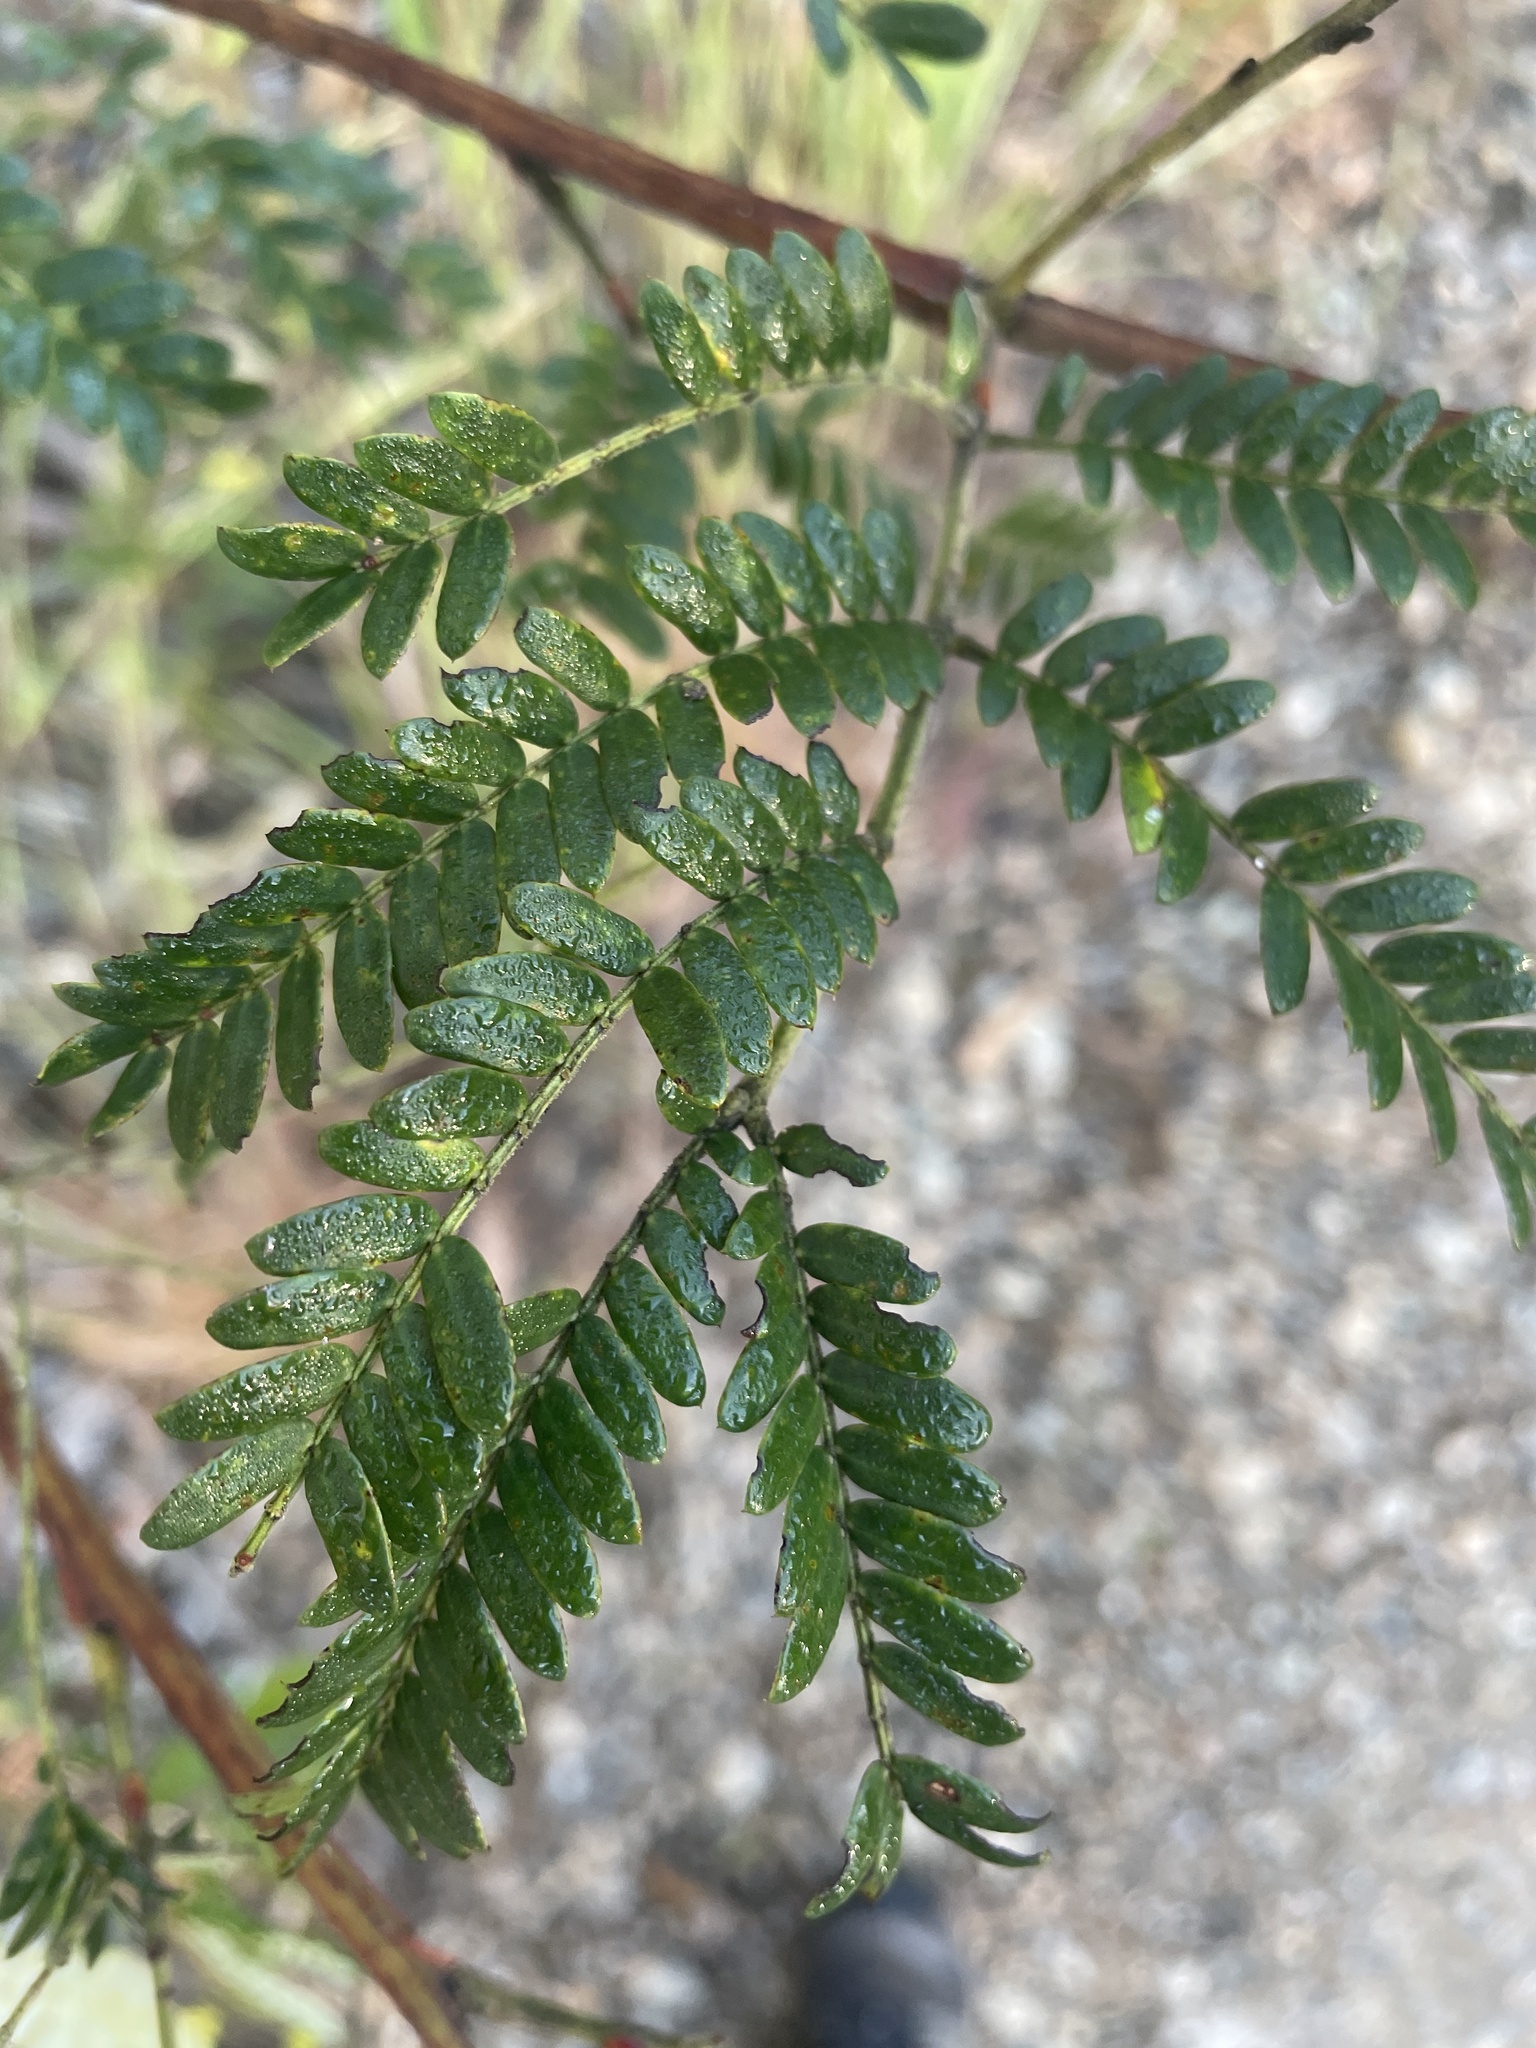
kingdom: Plantae
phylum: Tracheophyta
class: Magnoliopsida
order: Fabales
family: Fabaceae
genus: Acacia
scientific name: Acacia terminalis
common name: Cedar wattle
